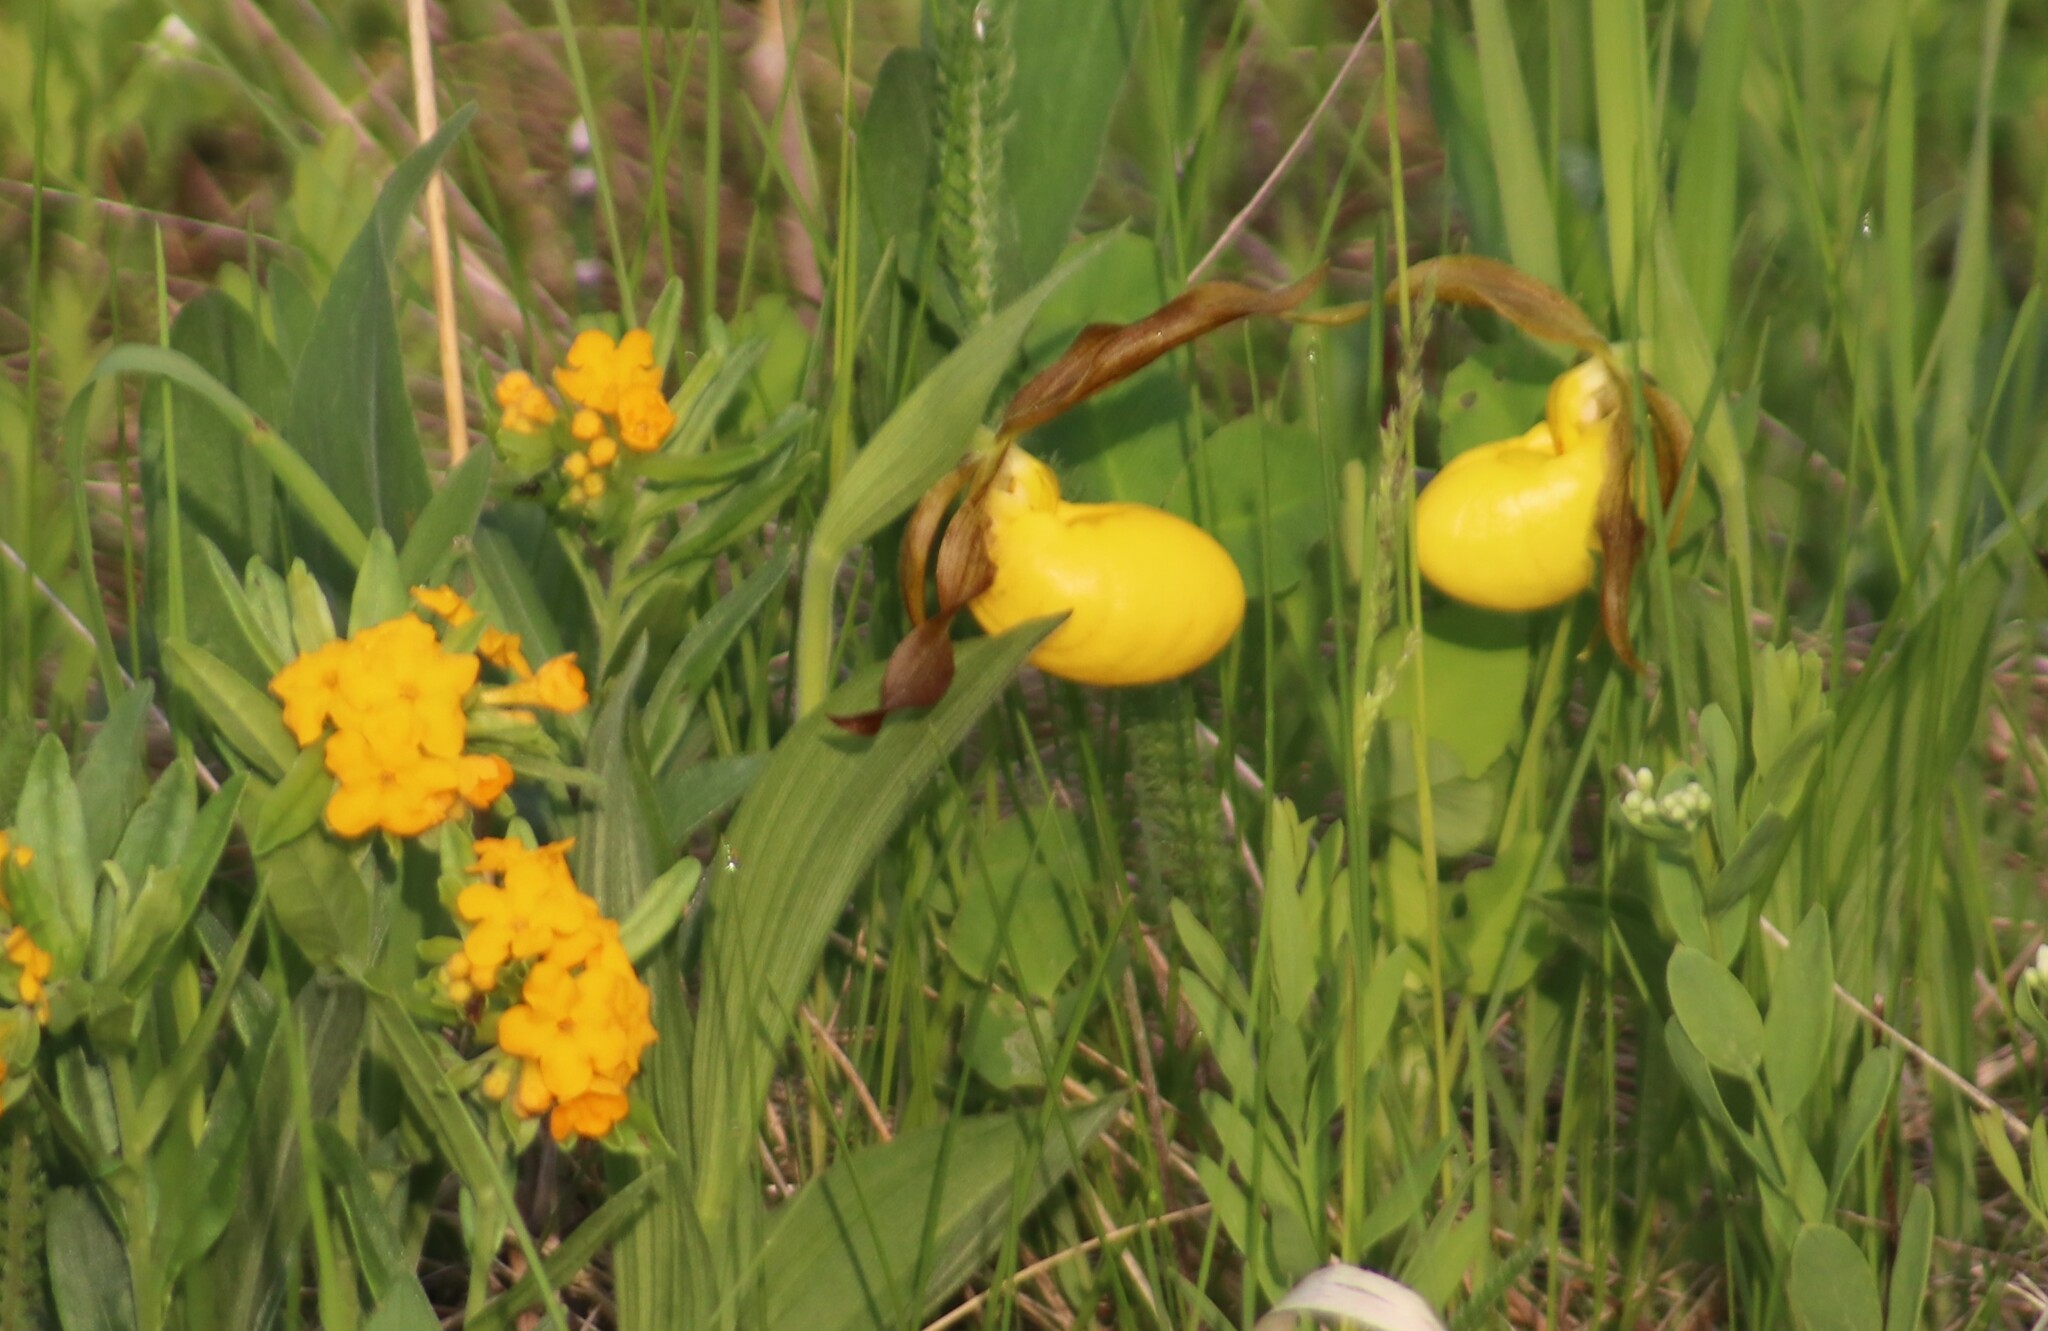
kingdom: Plantae
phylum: Tracheophyta
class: Liliopsida
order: Asparagales
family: Orchidaceae
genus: Cypripedium
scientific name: Cypripedium parviflorum
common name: American yellow lady's-slipper
